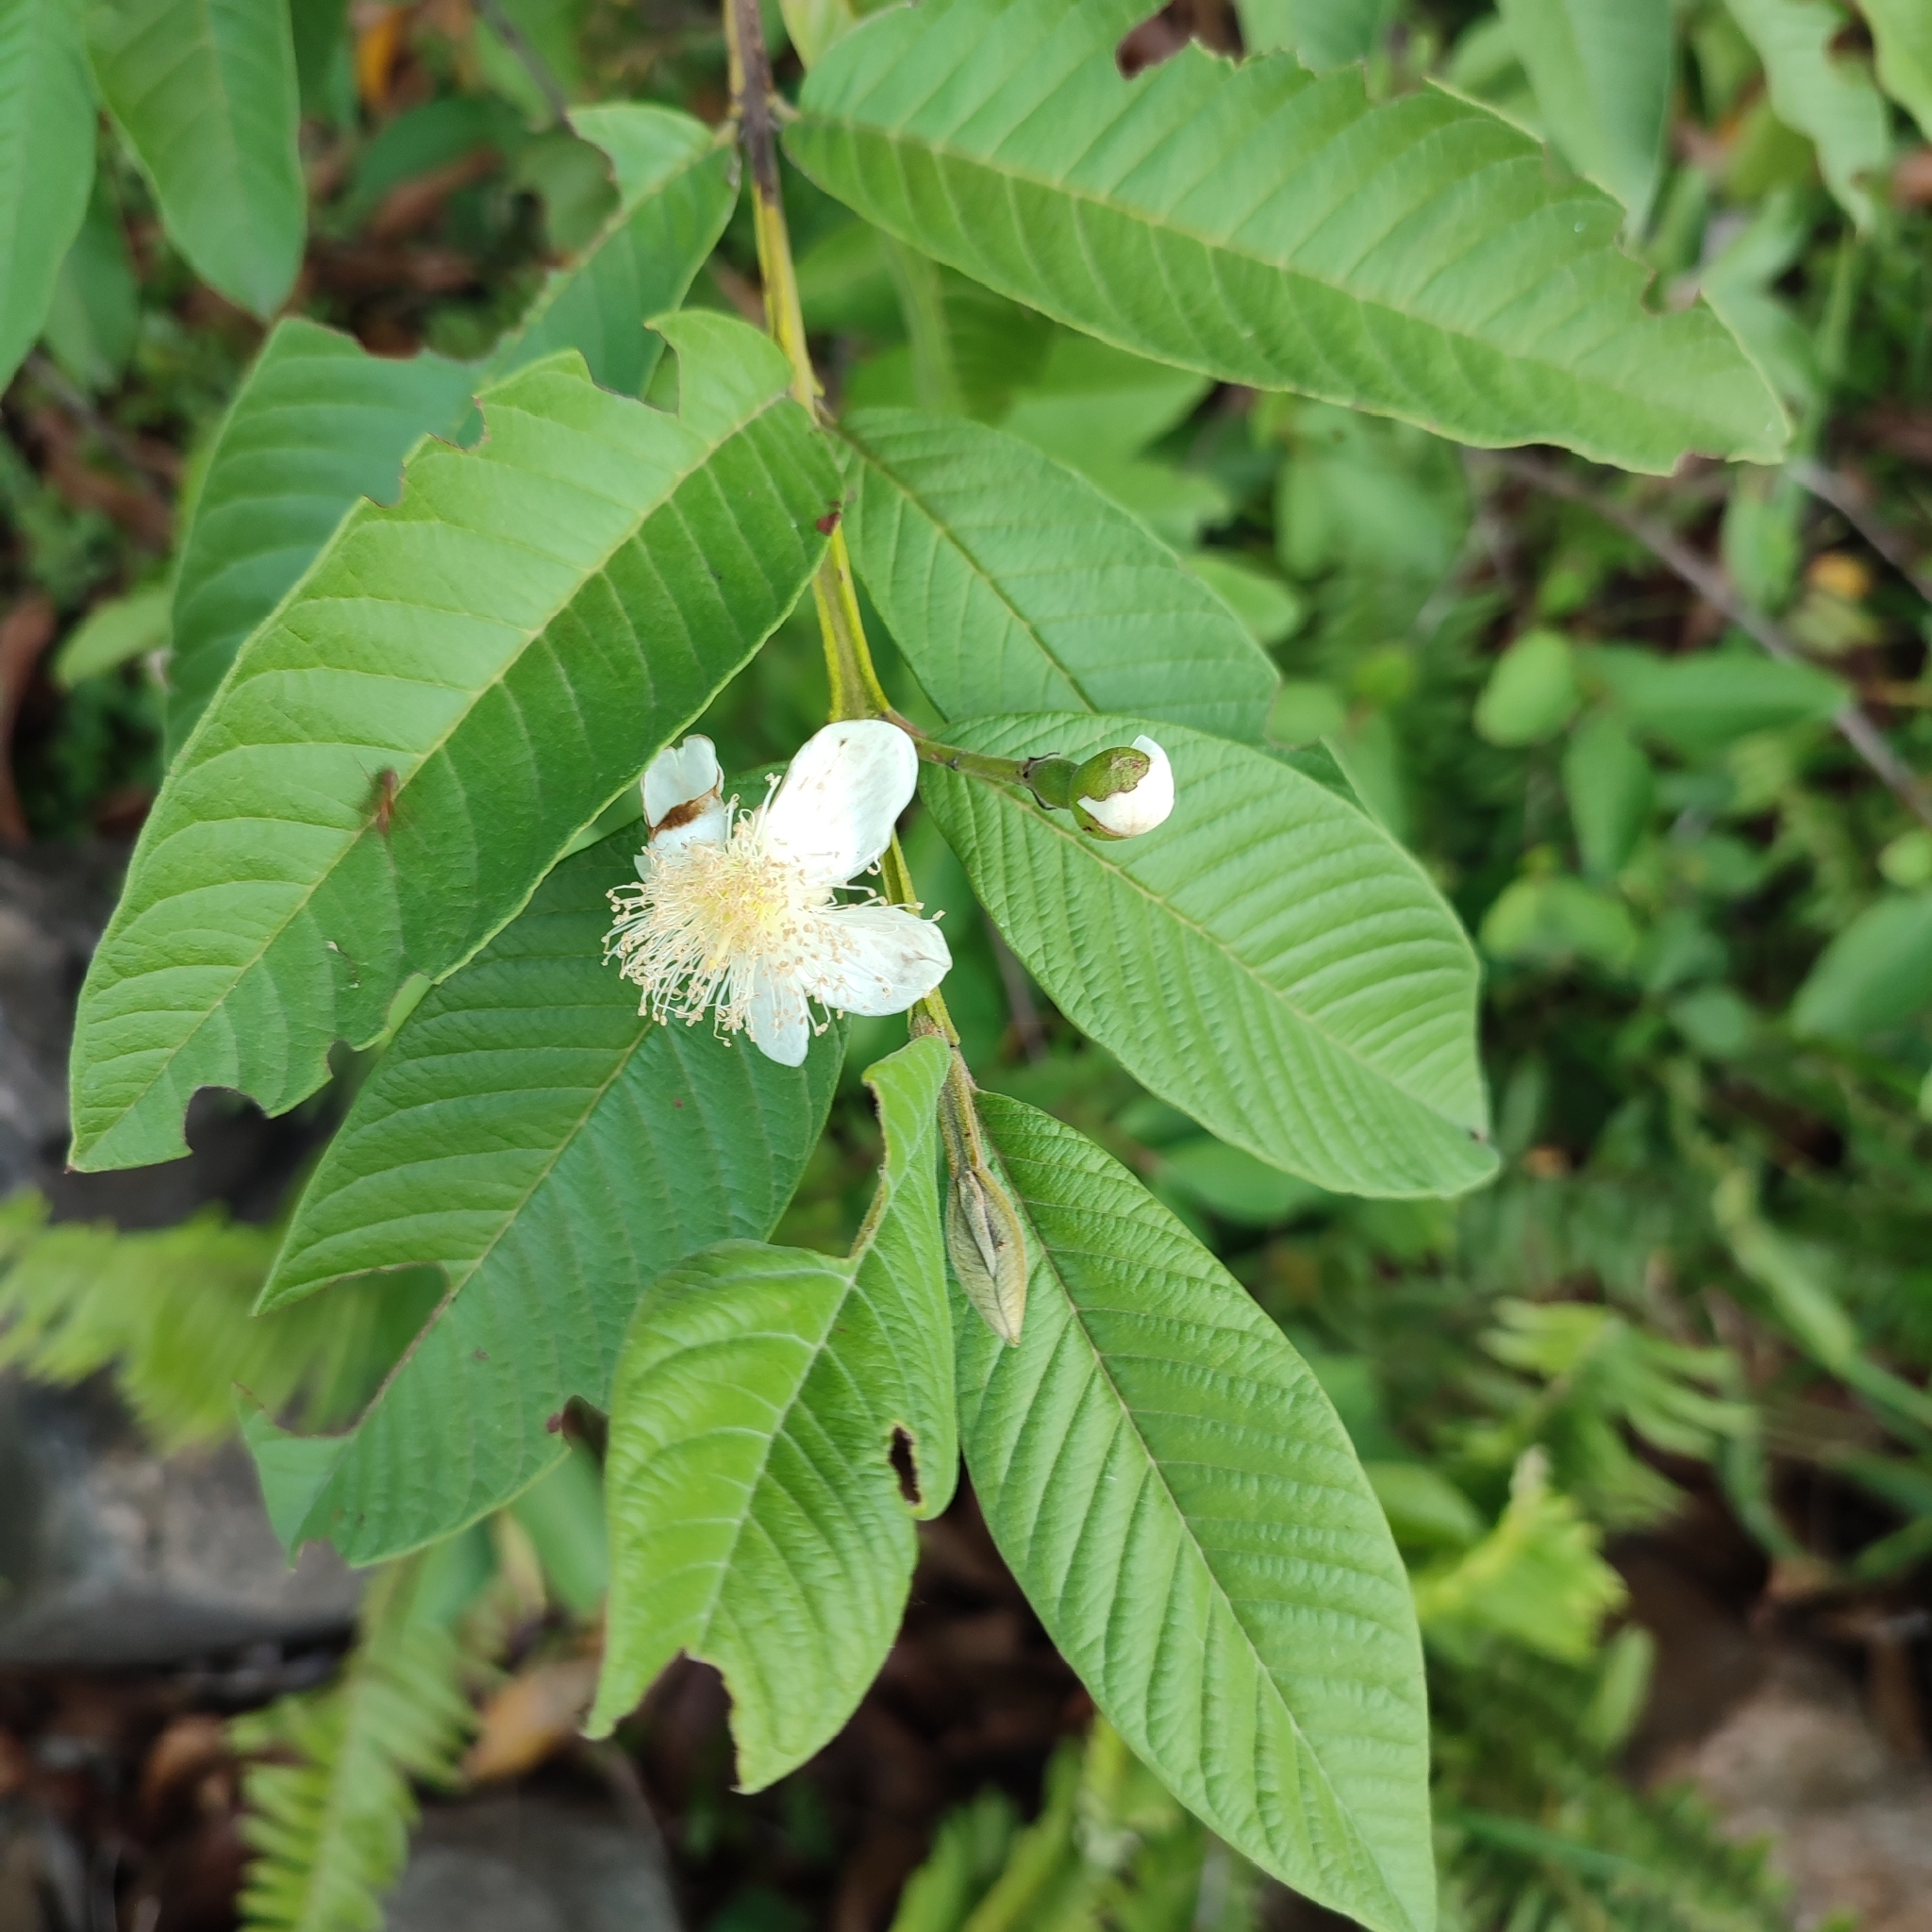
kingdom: Plantae
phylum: Tracheophyta
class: Magnoliopsida
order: Myrtales
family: Myrtaceae
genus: Psidium
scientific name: Psidium guajava
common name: Guava
